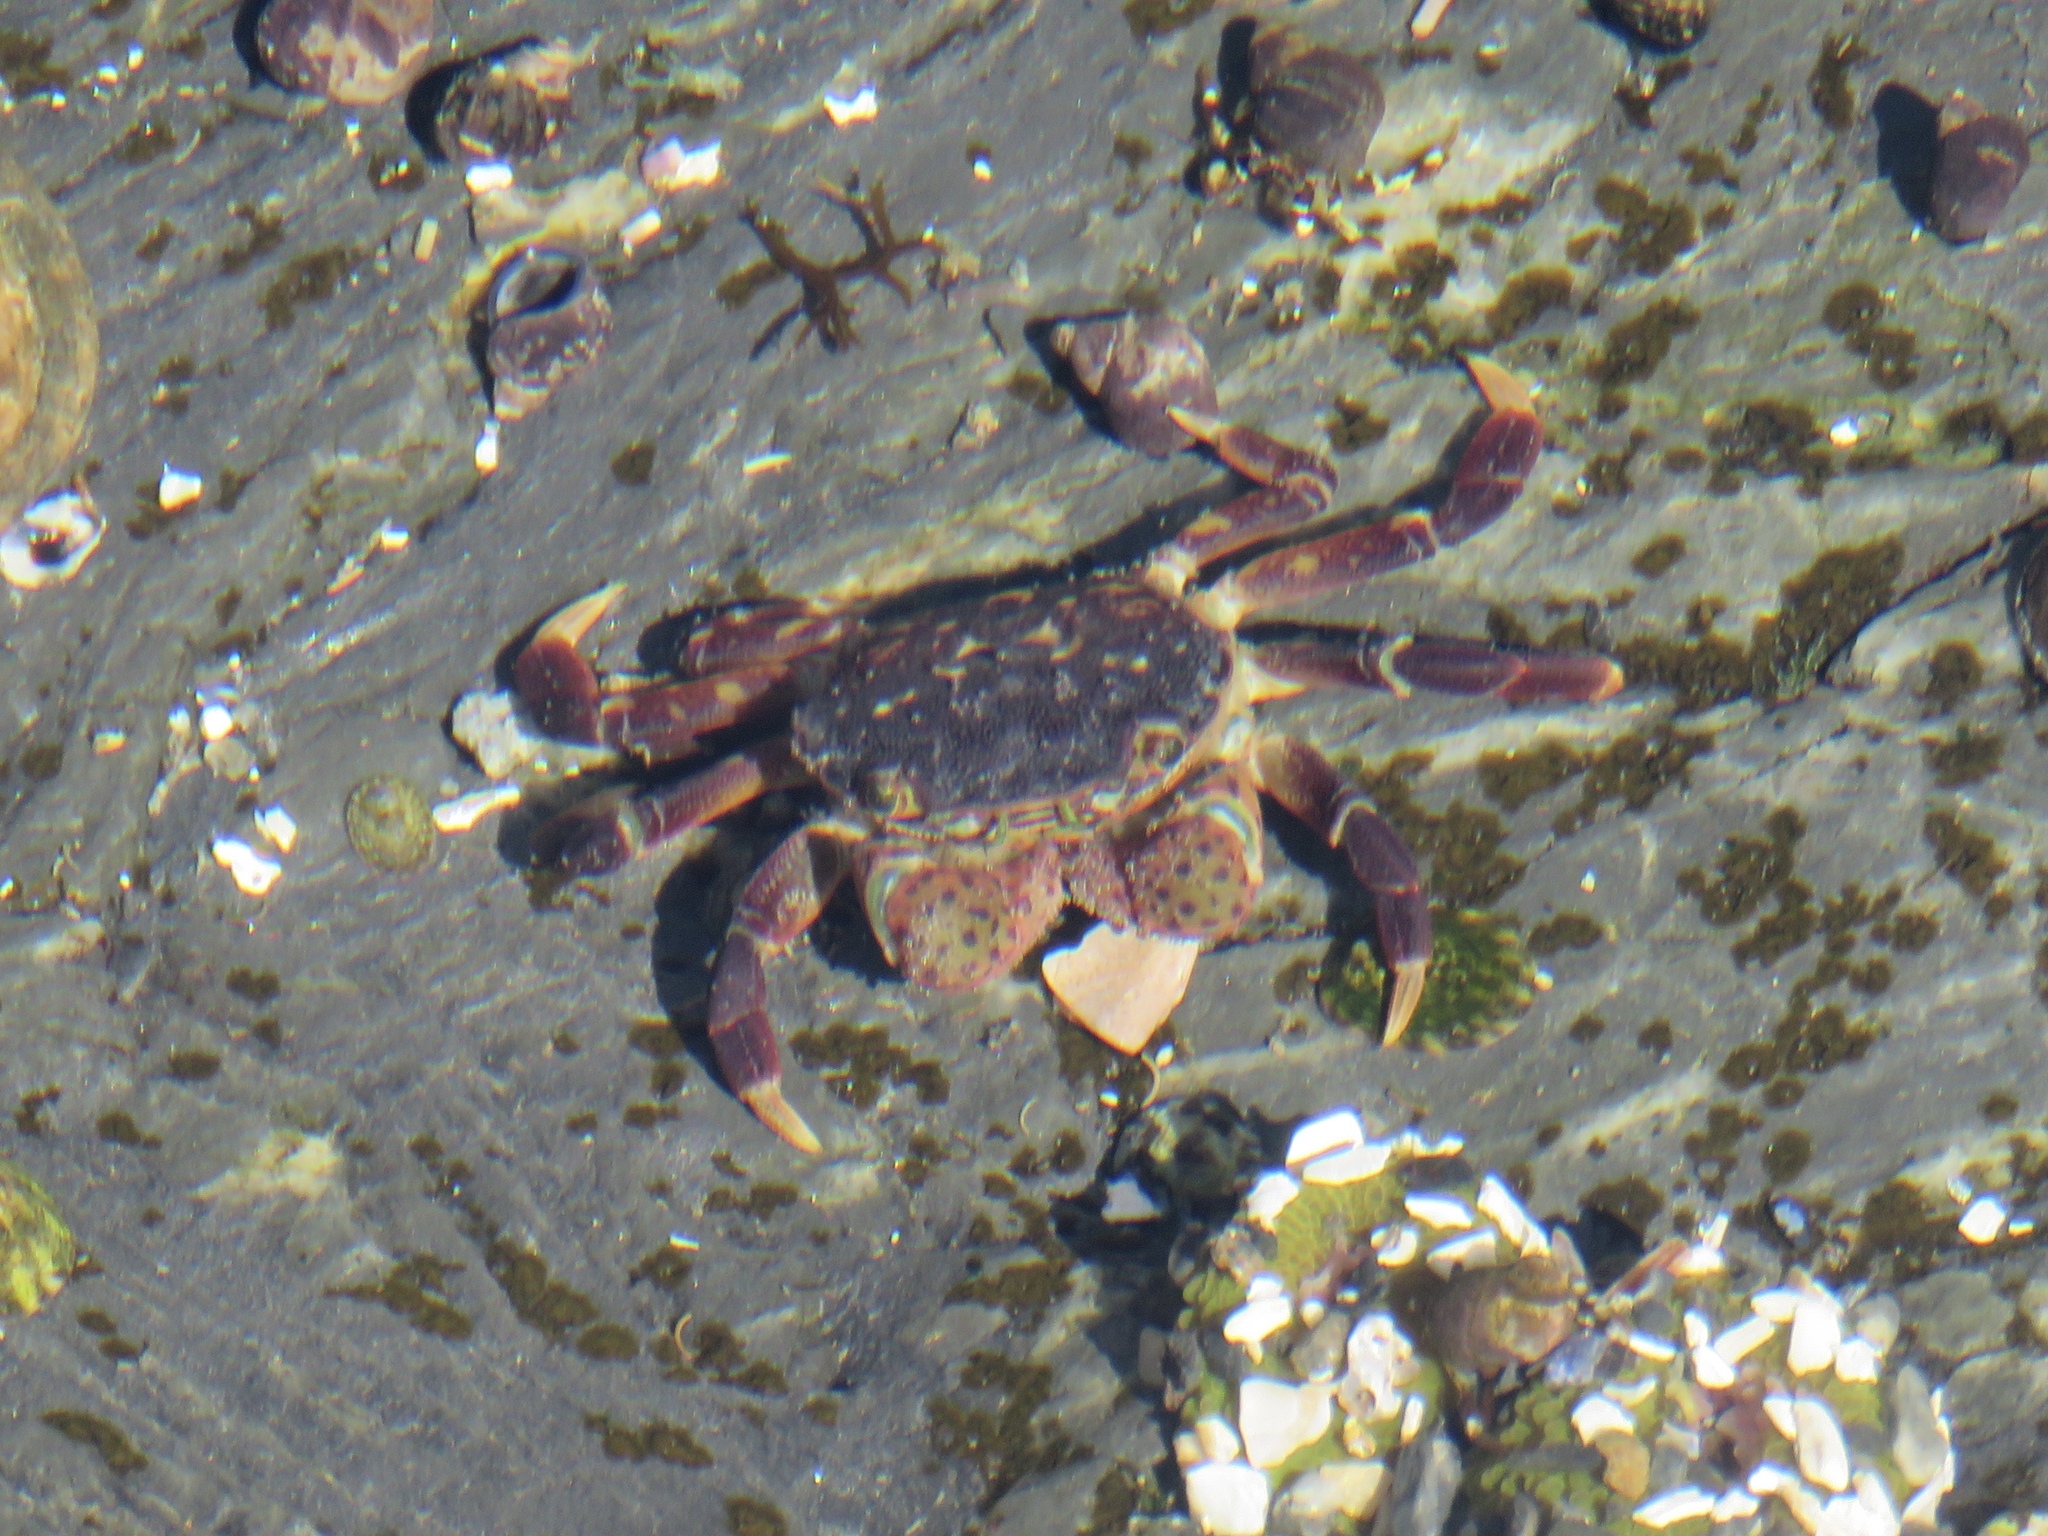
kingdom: Animalia
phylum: Arthropoda
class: Malacostraca
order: Decapoda
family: Varunidae
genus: Hemigrapsus
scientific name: Hemigrapsus nudus
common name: Purple shore crab
